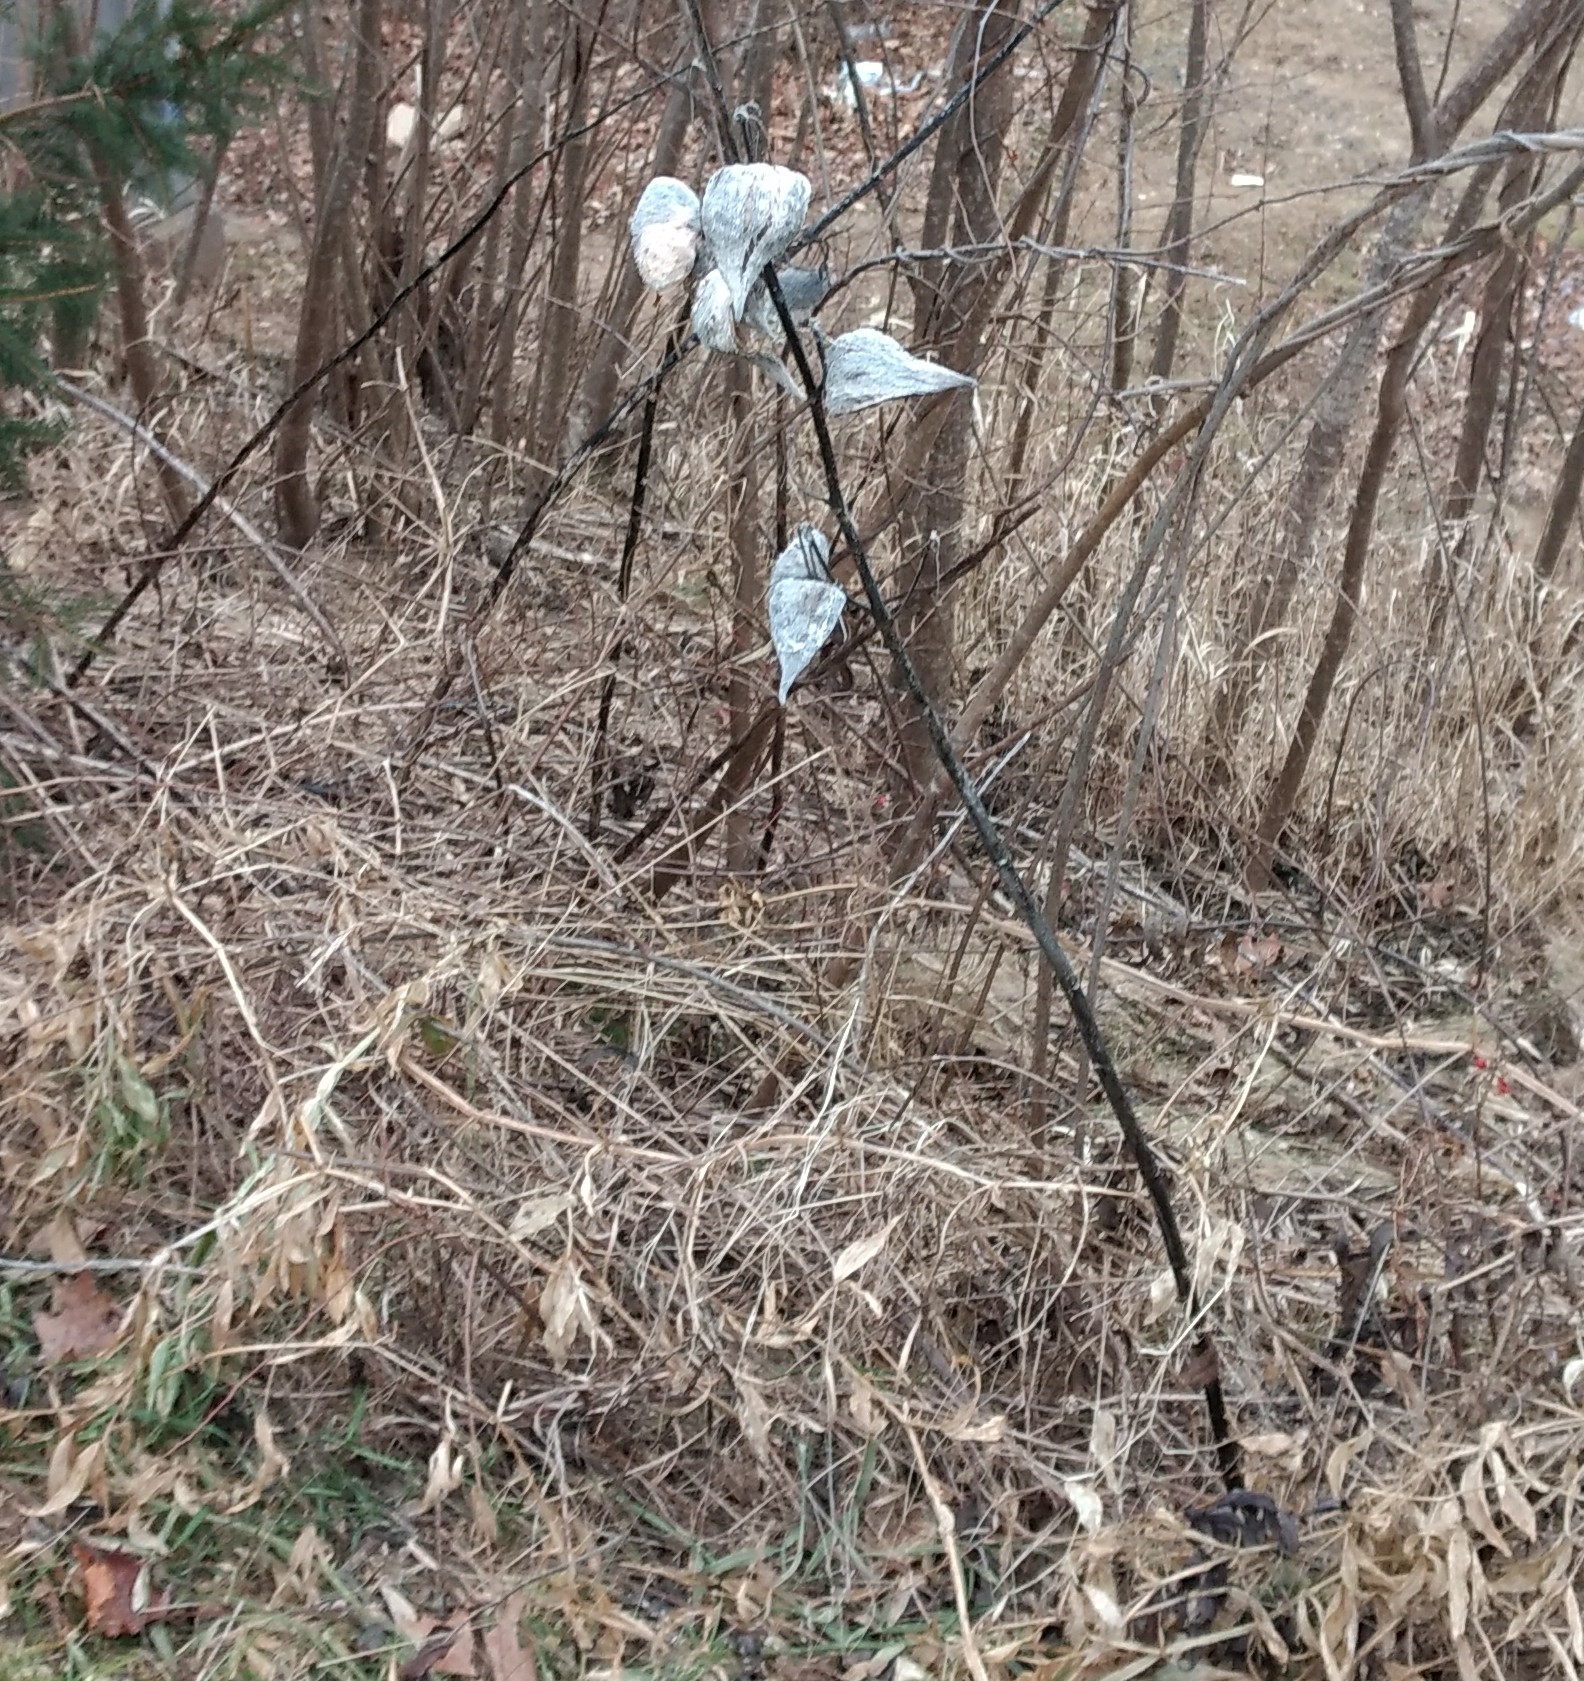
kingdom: Plantae
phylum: Tracheophyta
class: Magnoliopsida
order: Gentianales
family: Apocynaceae
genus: Asclepias
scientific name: Asclepias syriaca
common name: Common milkweed
